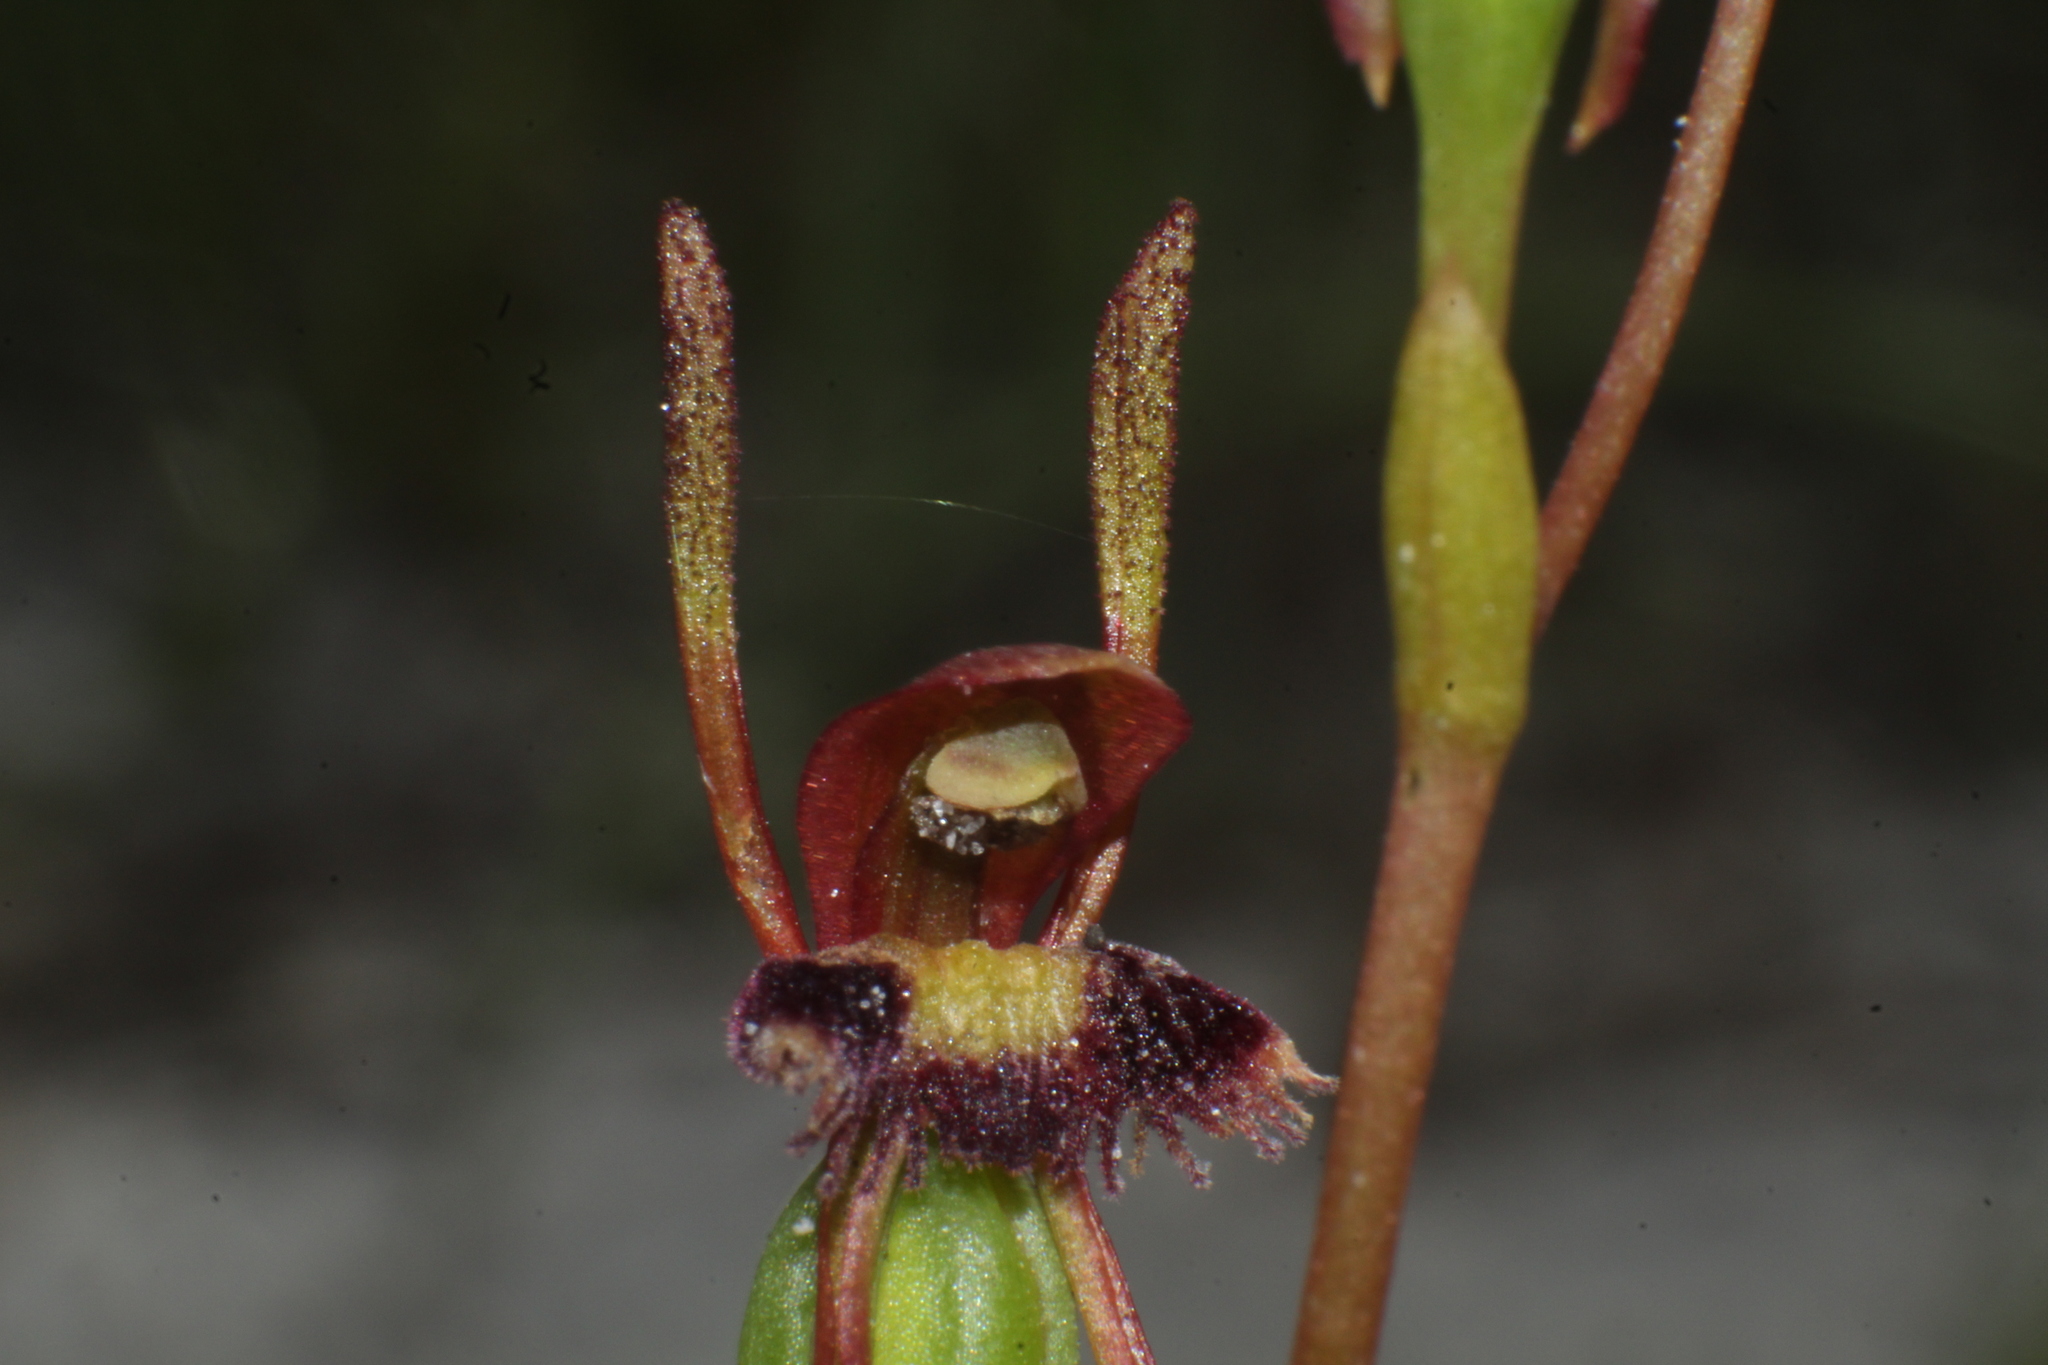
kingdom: Plantae
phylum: Tracheophyta
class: Liliopsida
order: Asparagales
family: Orchidaceae
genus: Leporella
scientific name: Leporella fimbriata
